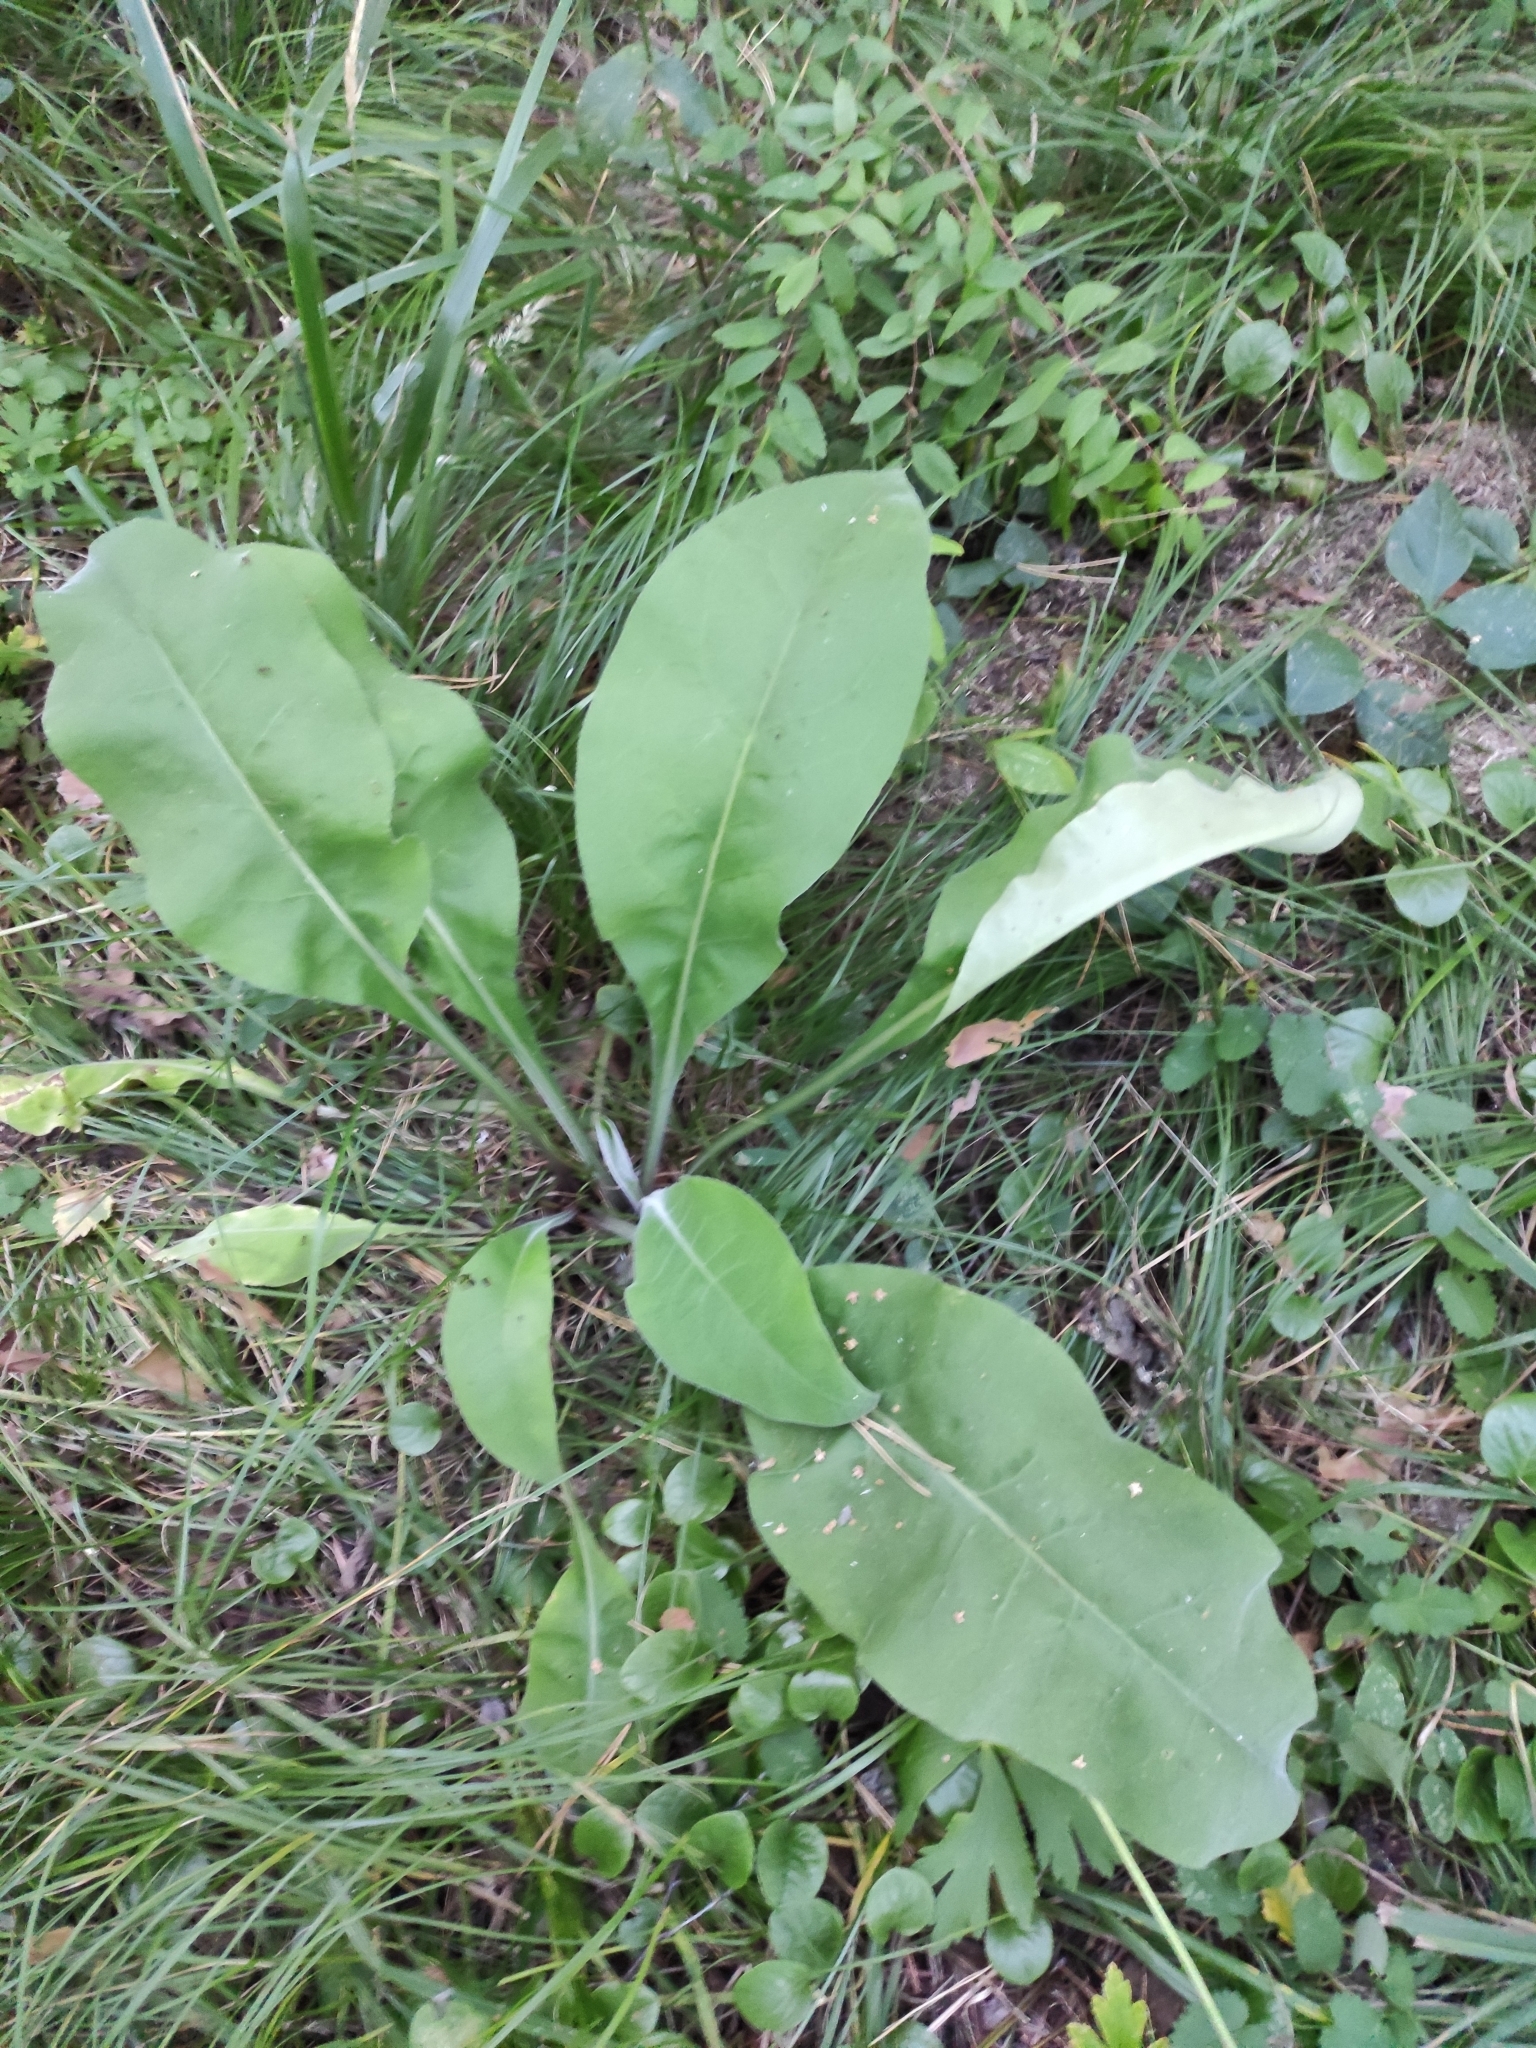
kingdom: Plantae
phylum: Tracheophyta
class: Magnoliopsida
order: Boraginales
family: Boraginaceae
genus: Pulmonaria
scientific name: Pulmonaria mollis
